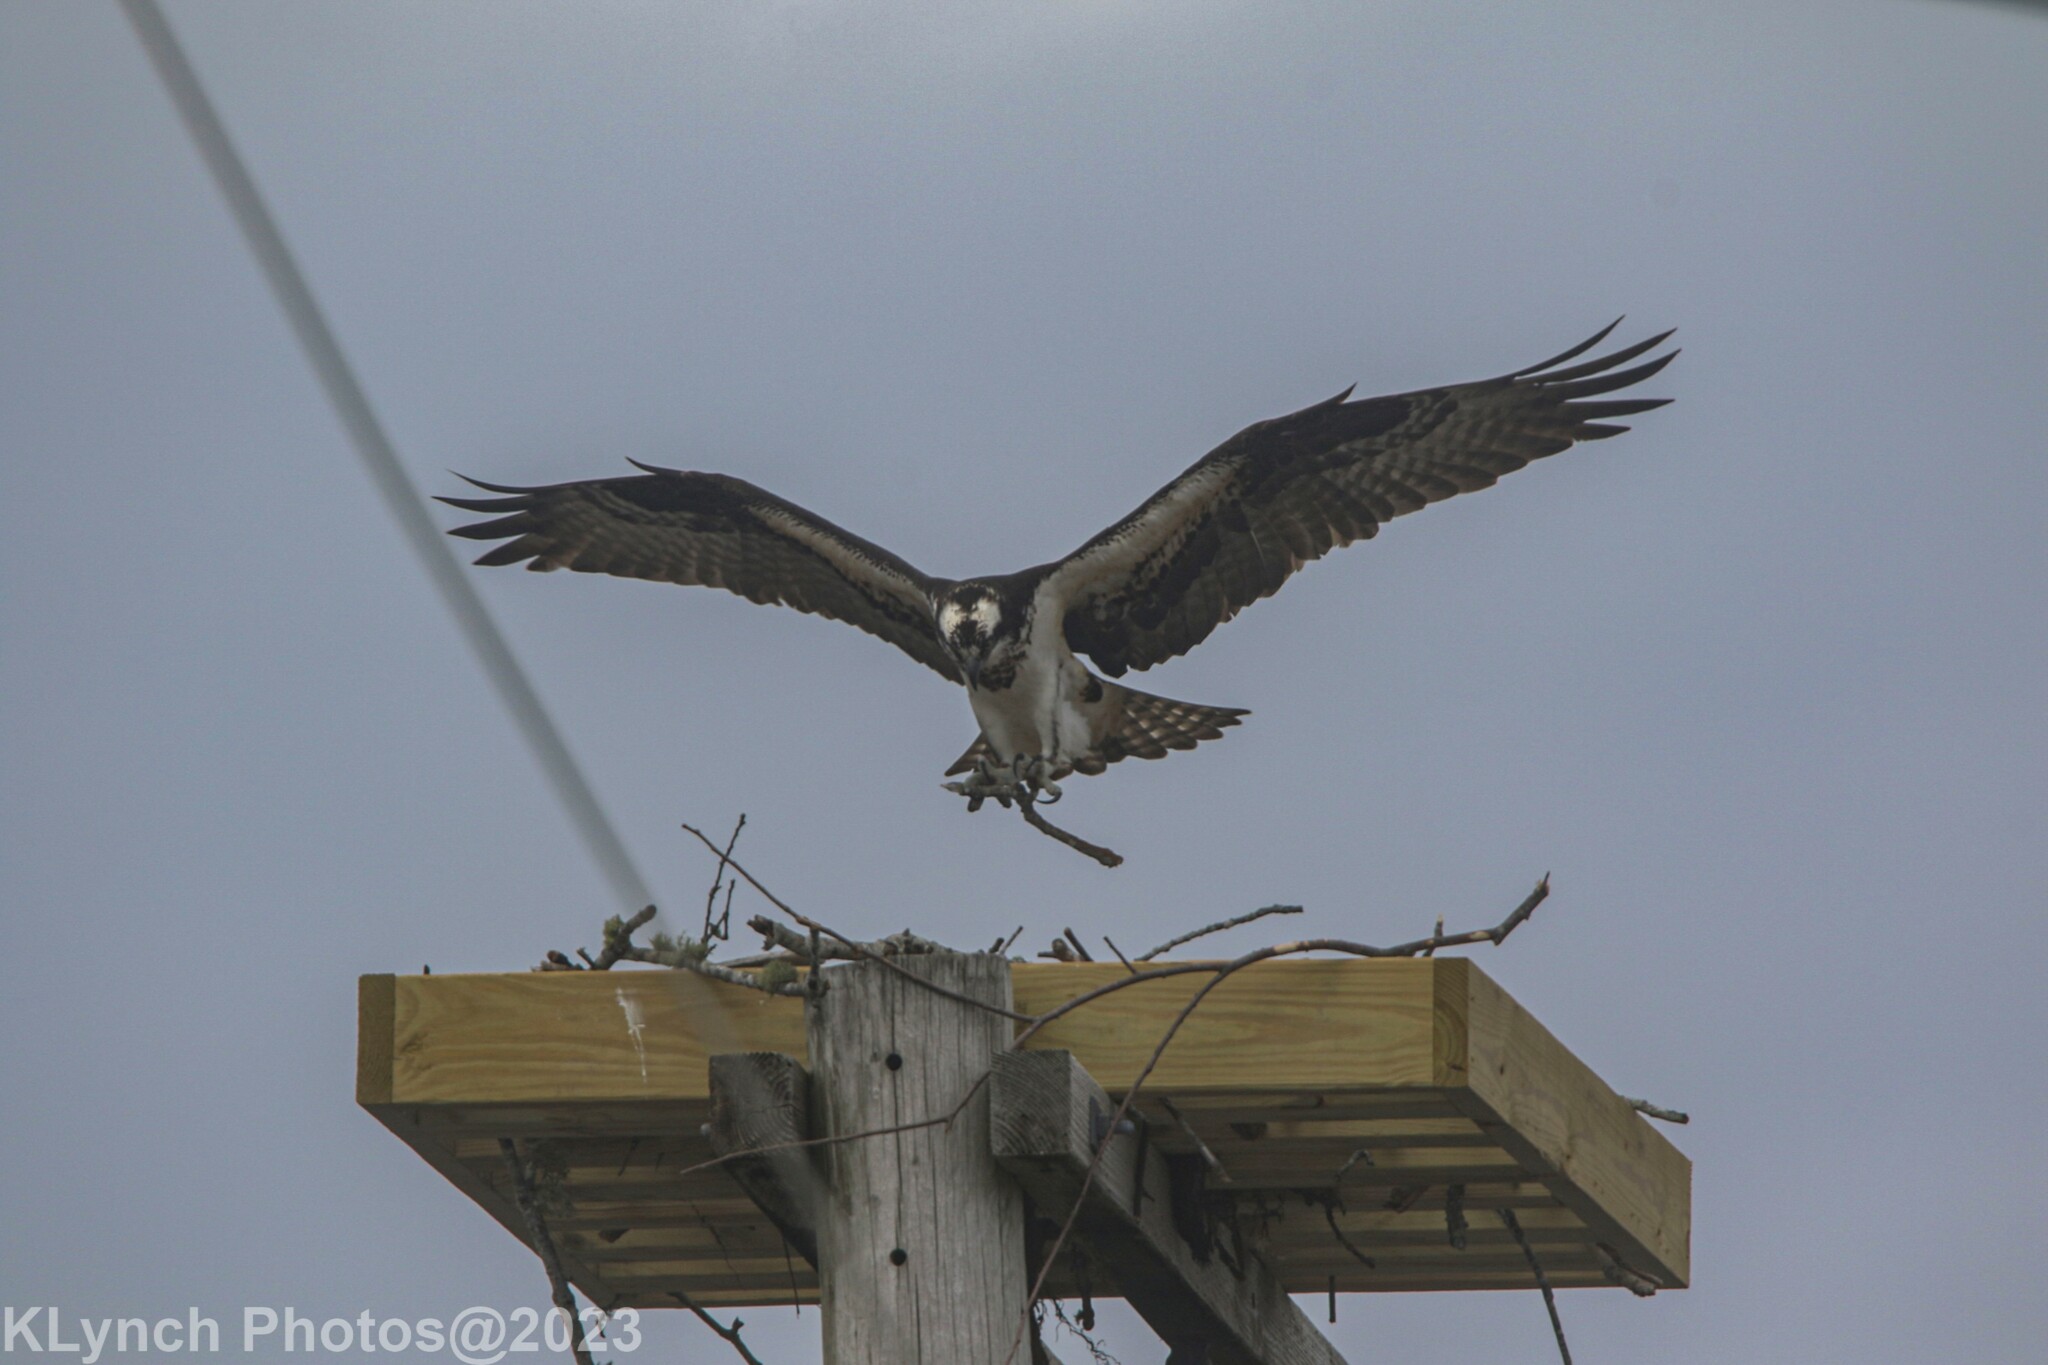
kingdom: Animalia
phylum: Chordata
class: Aves
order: Accipitriformes
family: Pandionidae
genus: Pandion
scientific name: Pandion haliaetus
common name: Osprey
